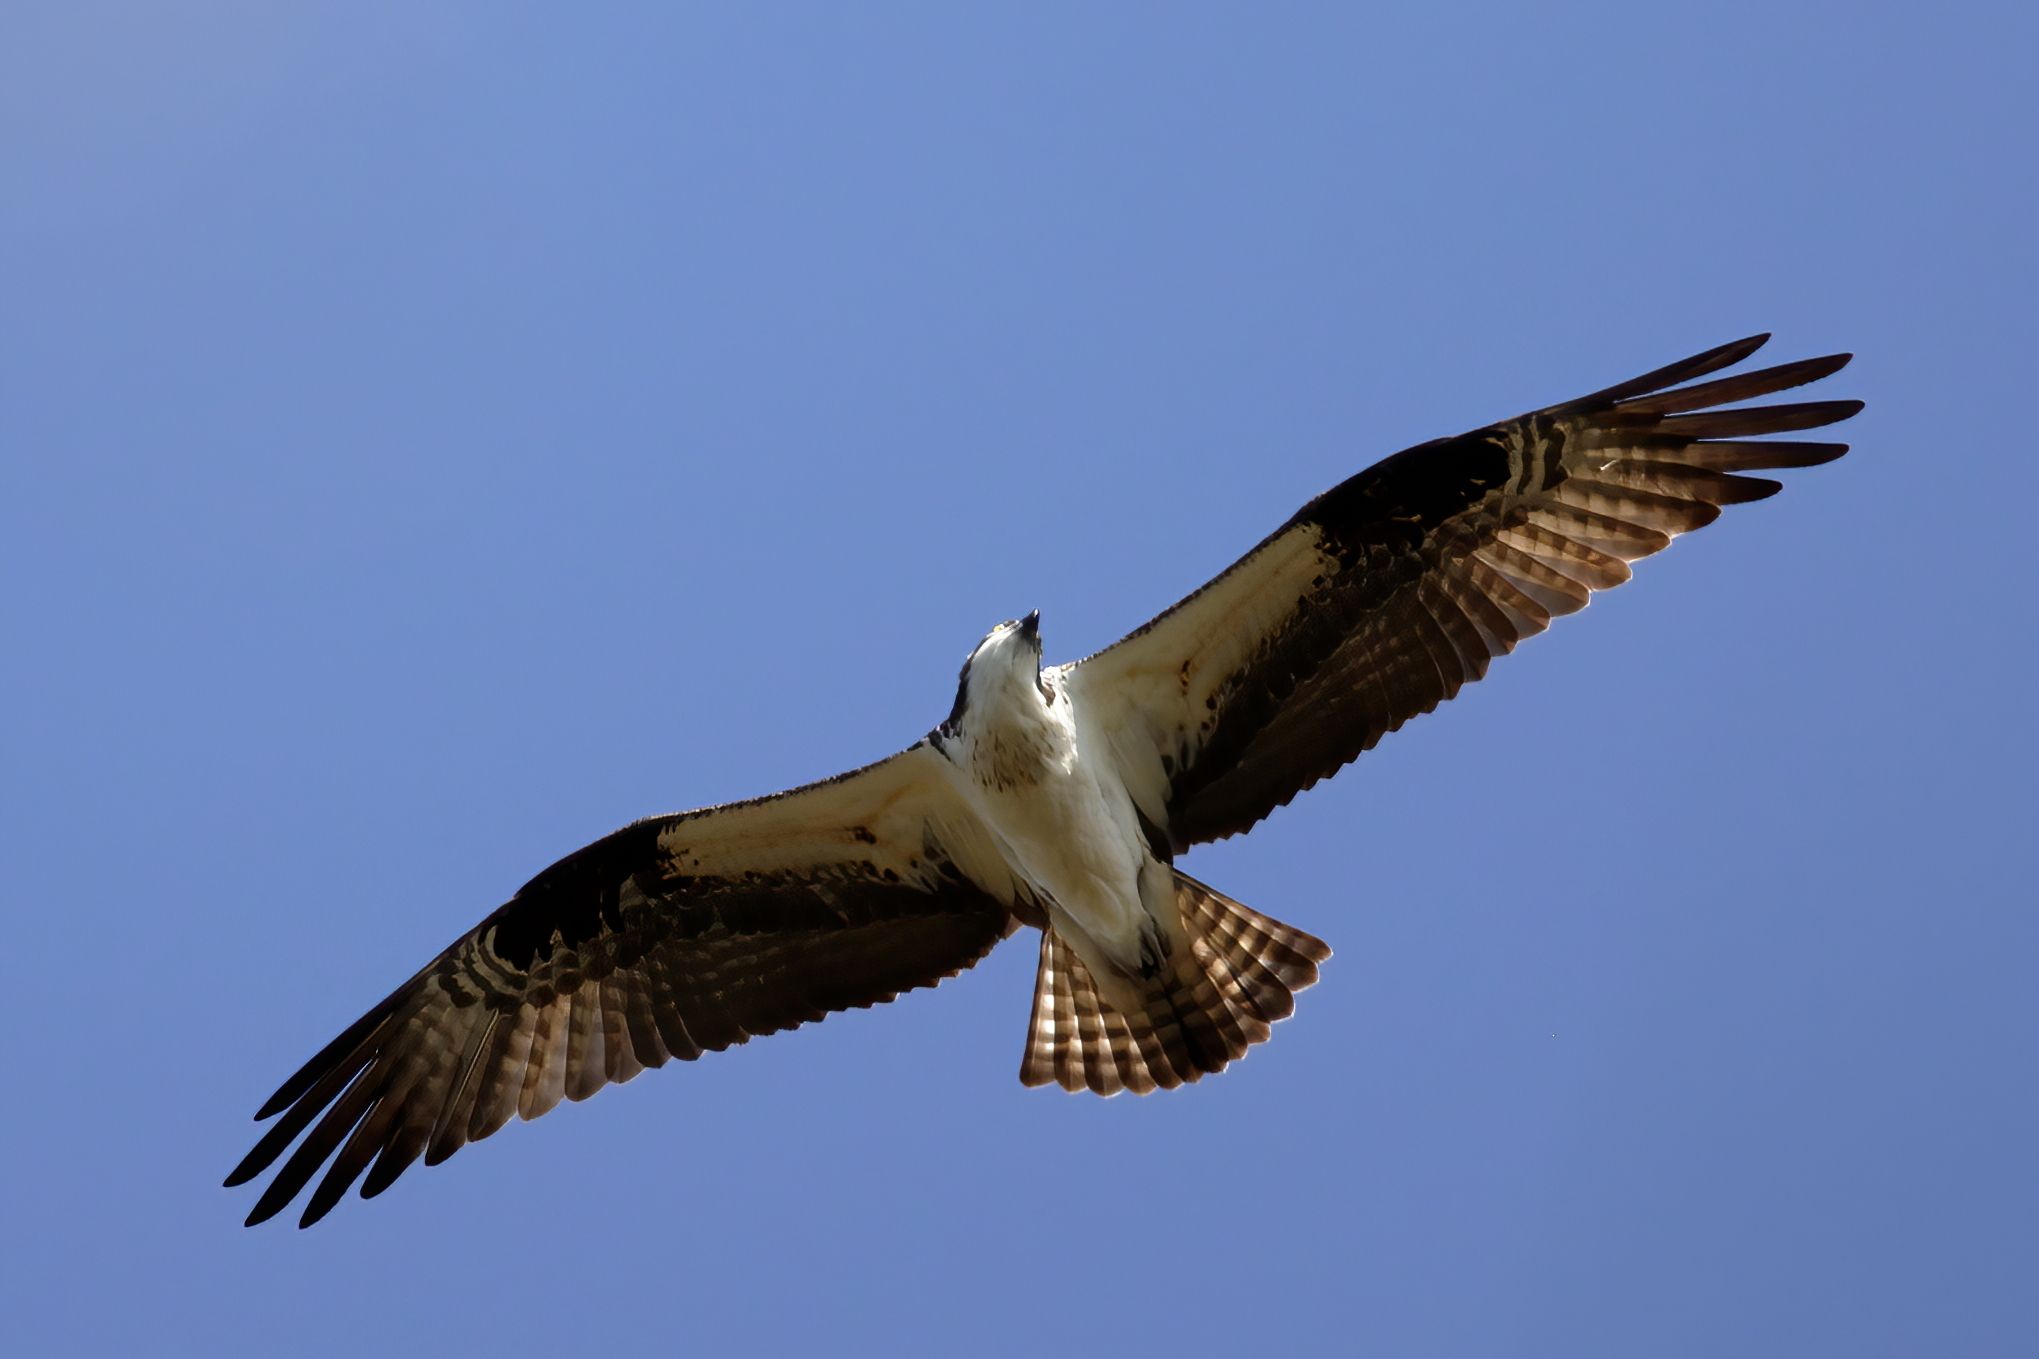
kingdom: Animalia
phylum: Chordata
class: Aves
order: Accipitriformes
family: Pandionidae
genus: Pandion
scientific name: Pandion haliaetus
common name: Osprey
